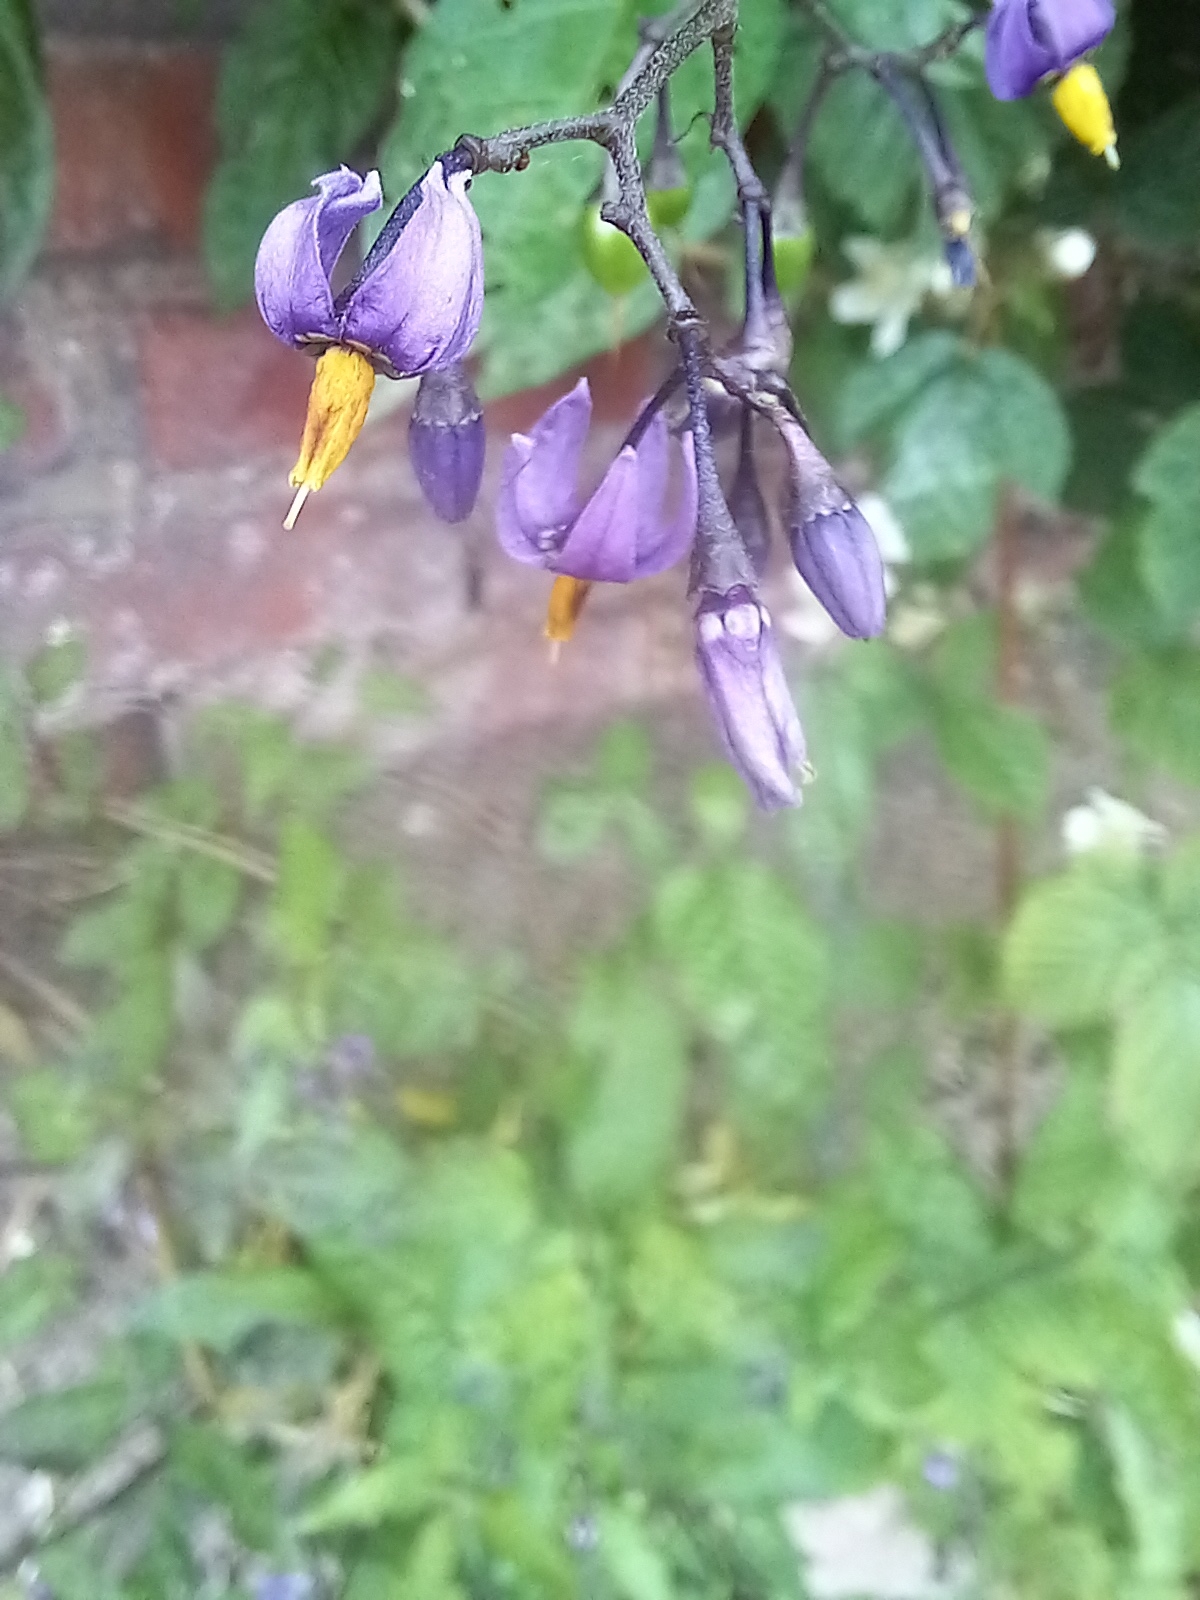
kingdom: Plantae
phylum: Tracheophyta
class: Magnoliopsida
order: Solanales
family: Solanaceae
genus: Solanum
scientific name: Solanum dulcamara
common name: Climbing nightshade
